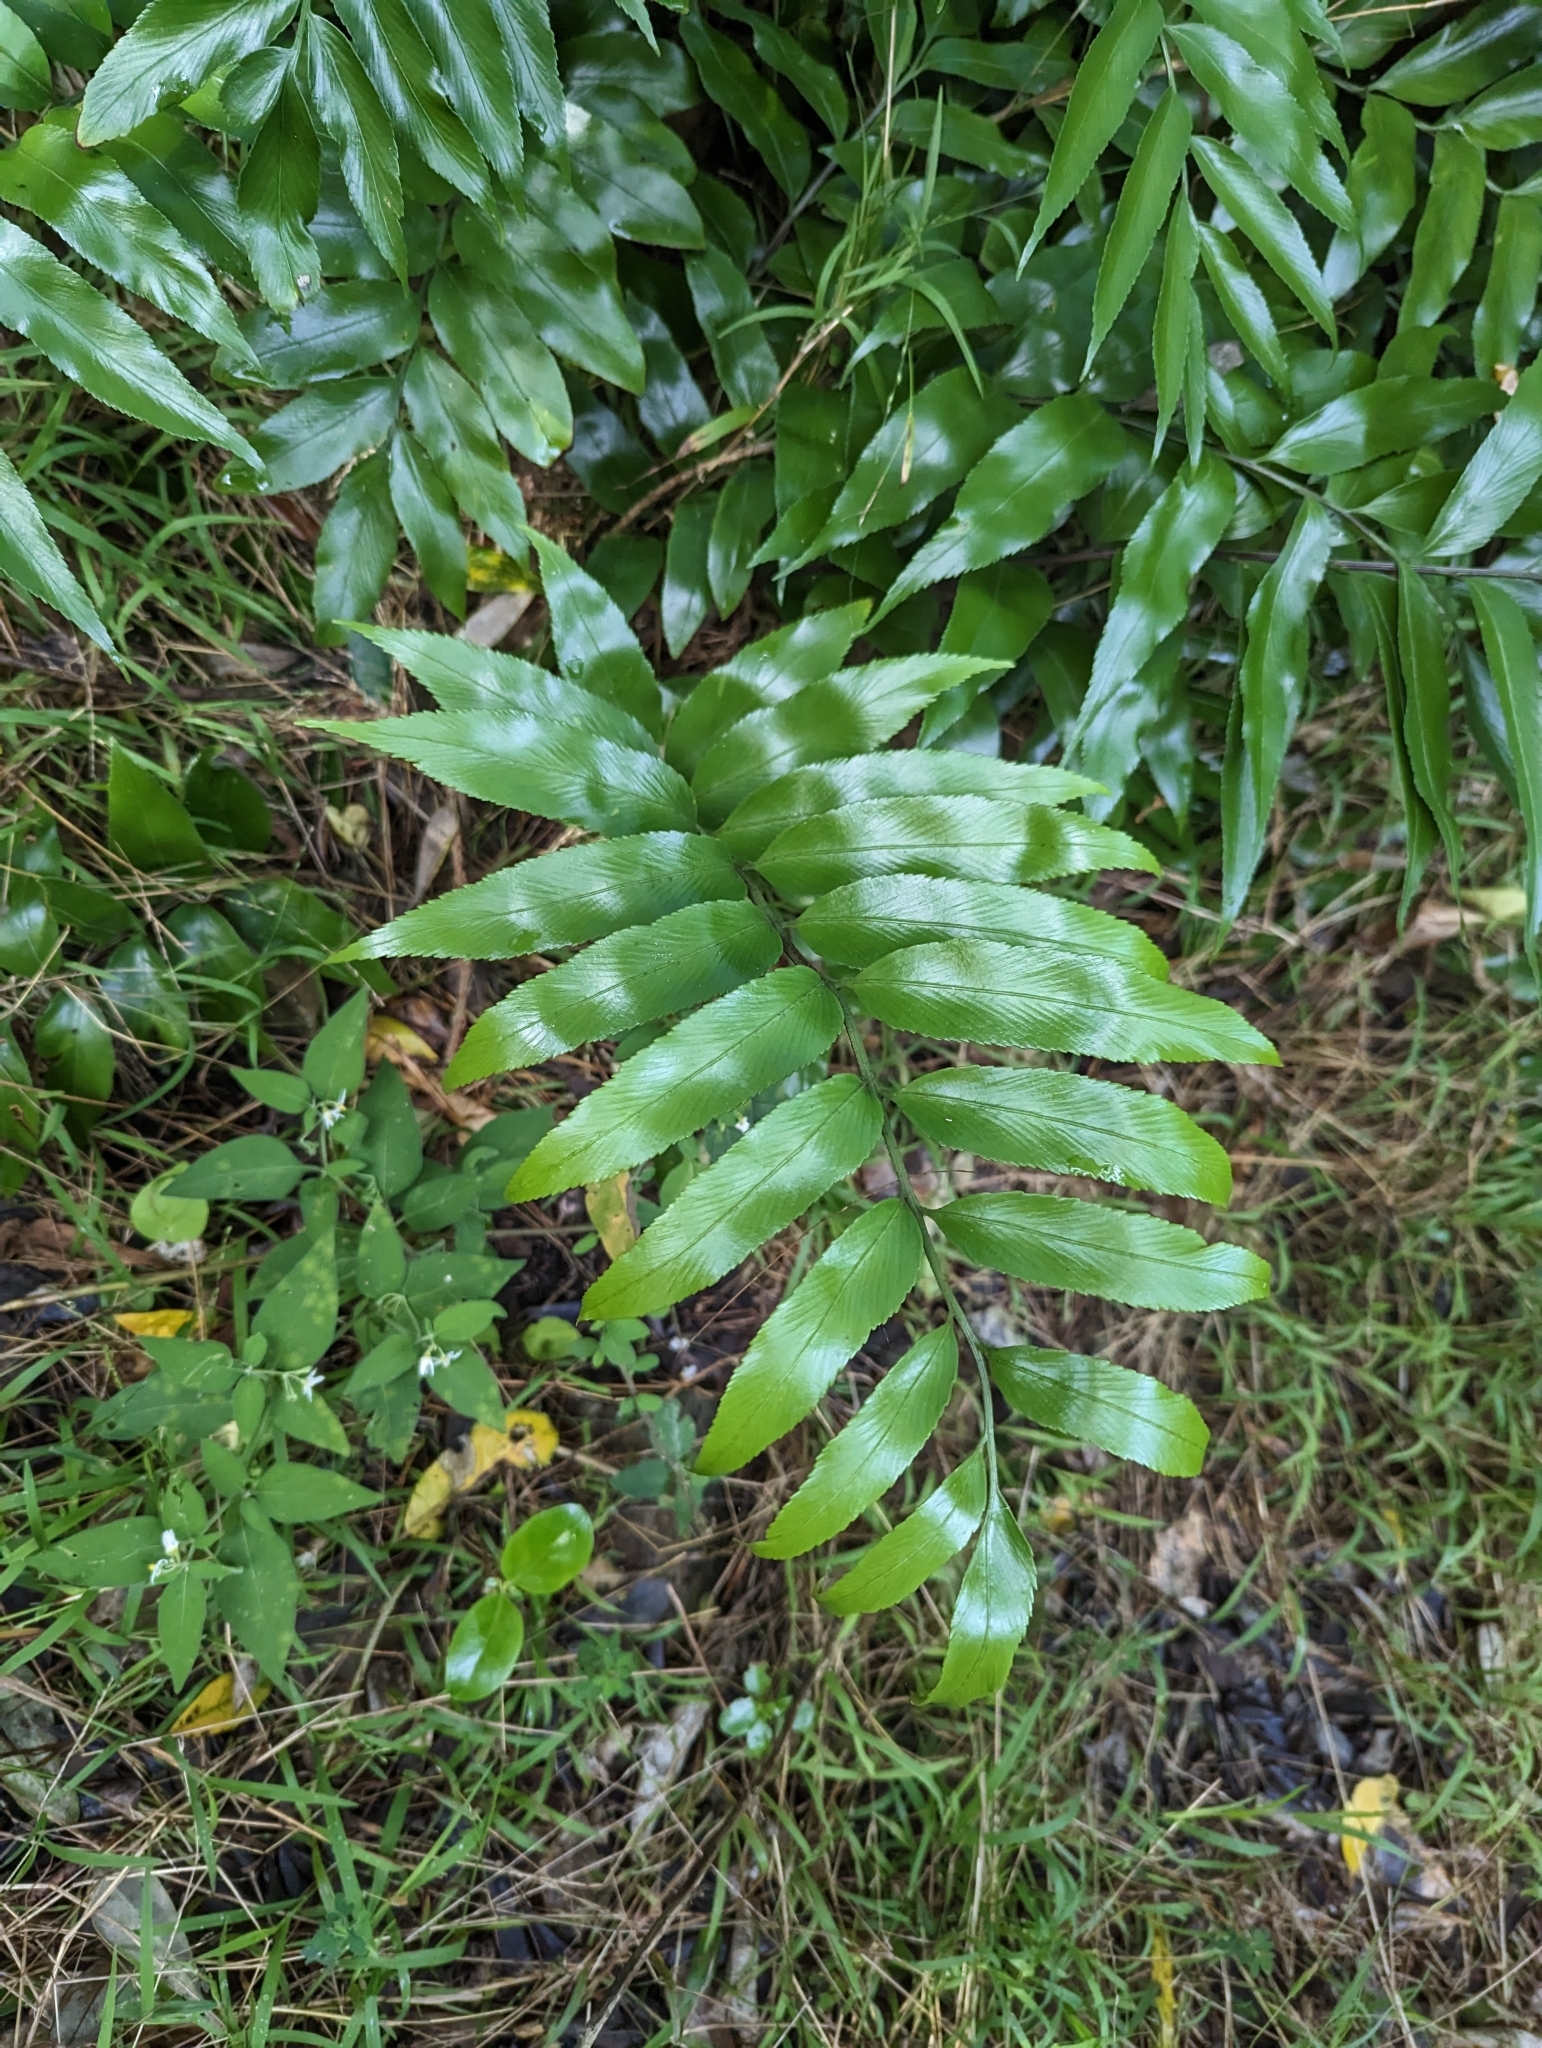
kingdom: Plantae
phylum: Tracheophyta
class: Polypodiopsida
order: Polypodiales
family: Aspleniaceae
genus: Asplenium
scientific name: Asplenium oblongifolium
